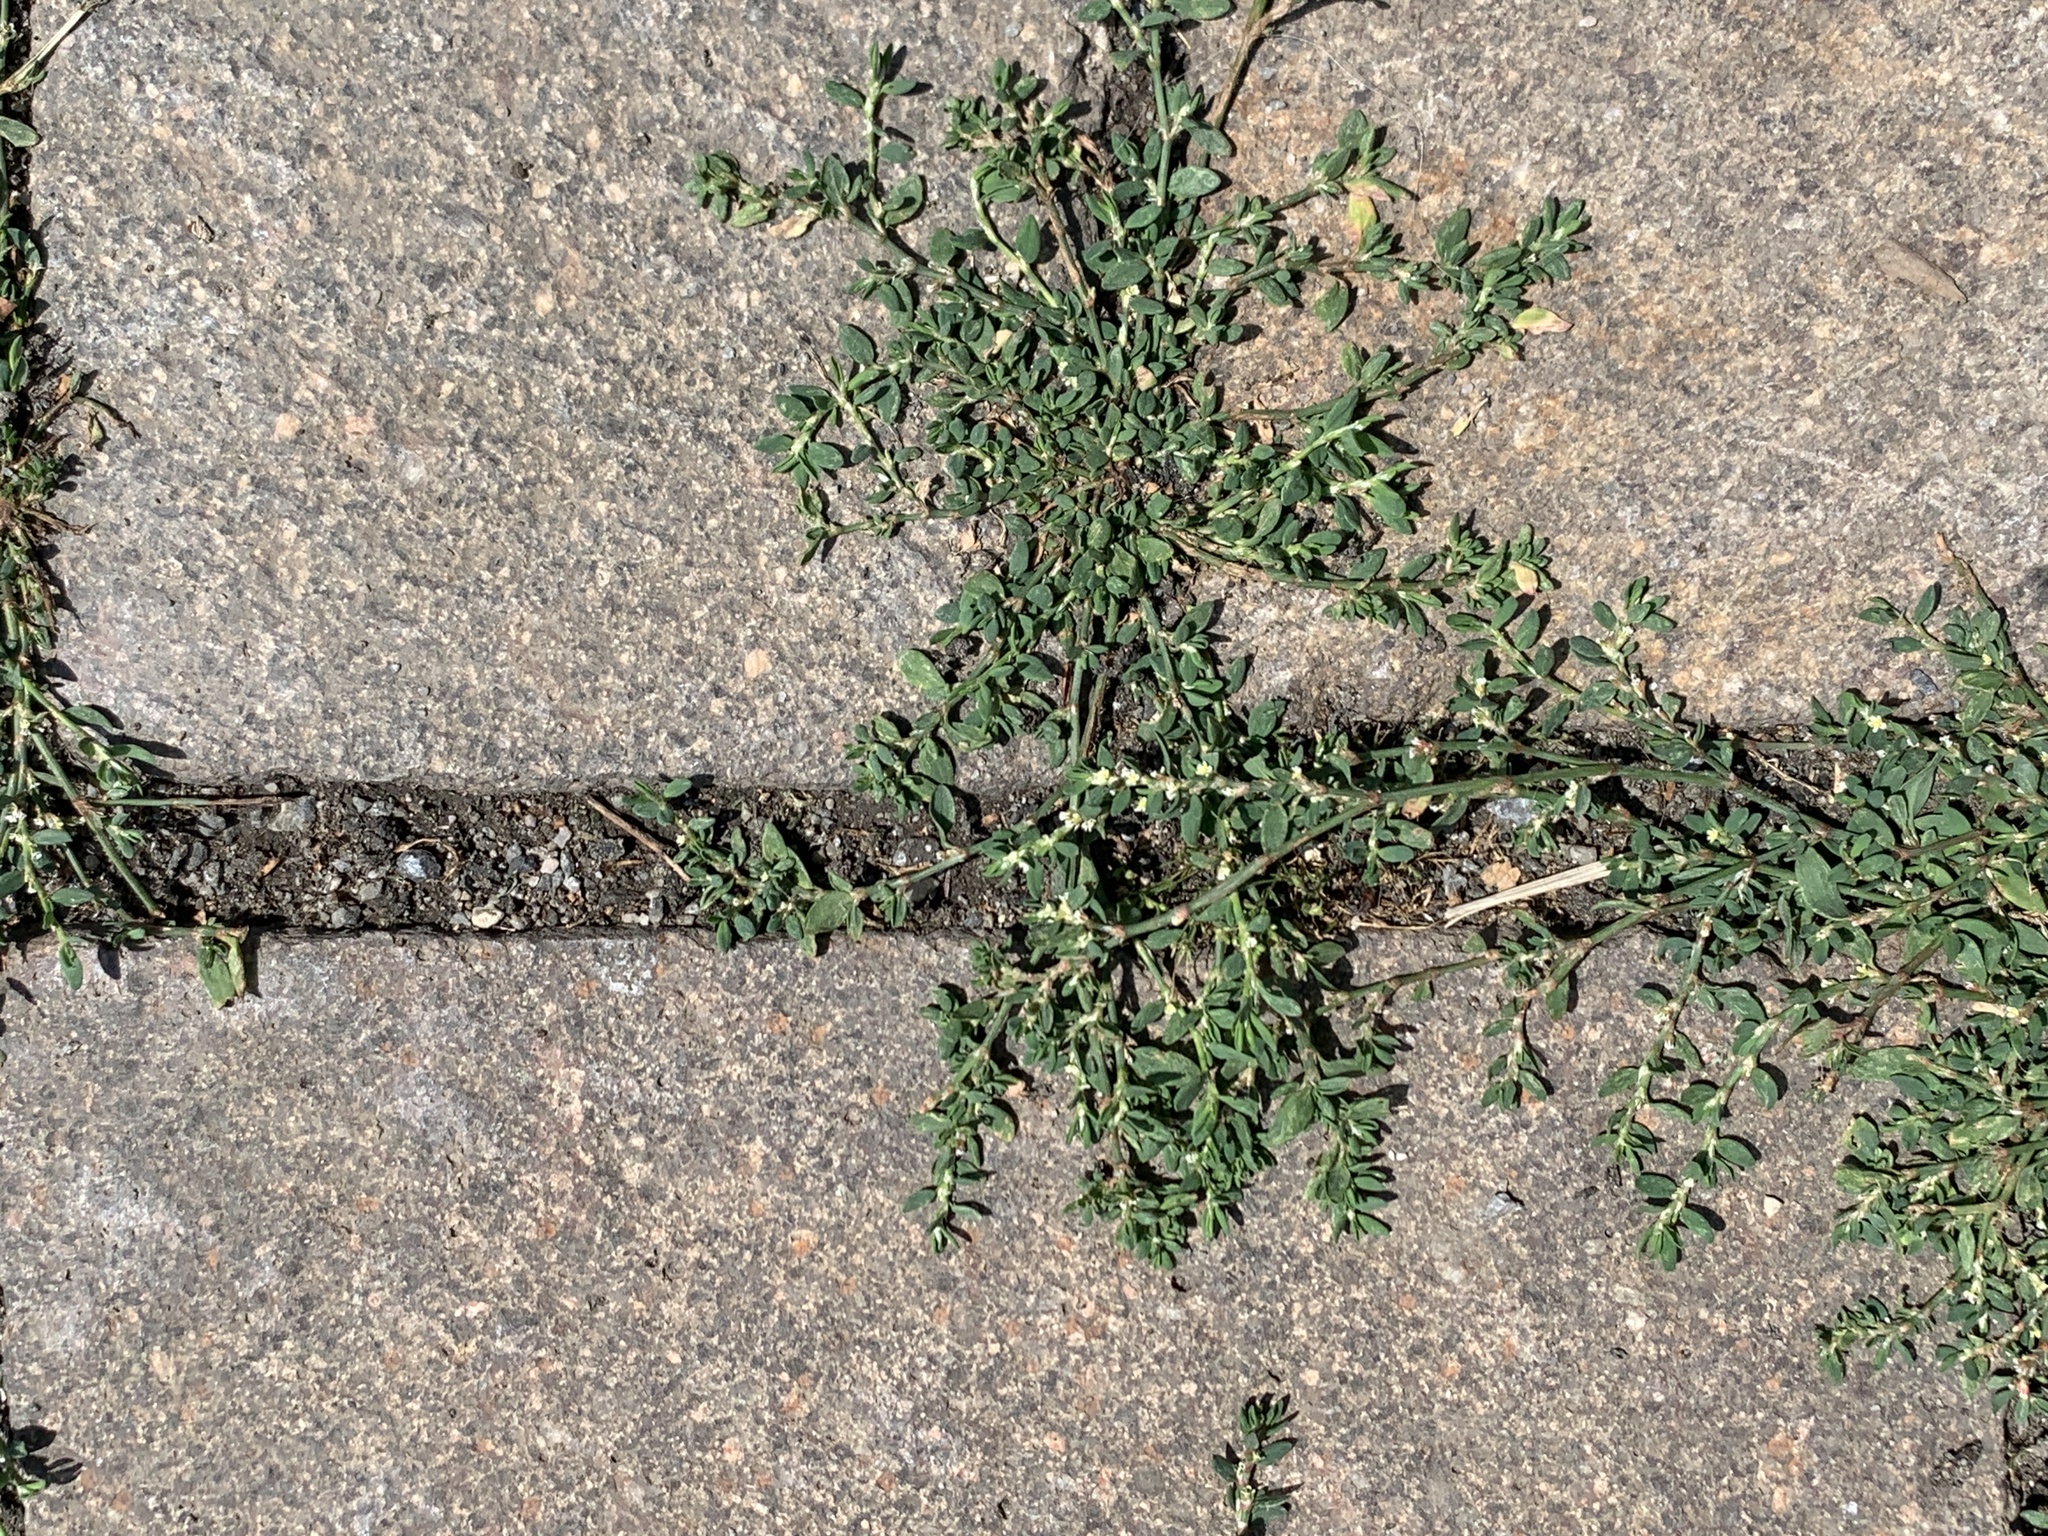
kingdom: Plantae
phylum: Tracheophyta
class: Magnoliopsida
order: Caryophyllales
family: Polygonaceae
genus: Polygonum
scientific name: Polygonum aviculare
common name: Prostrate knotweed
